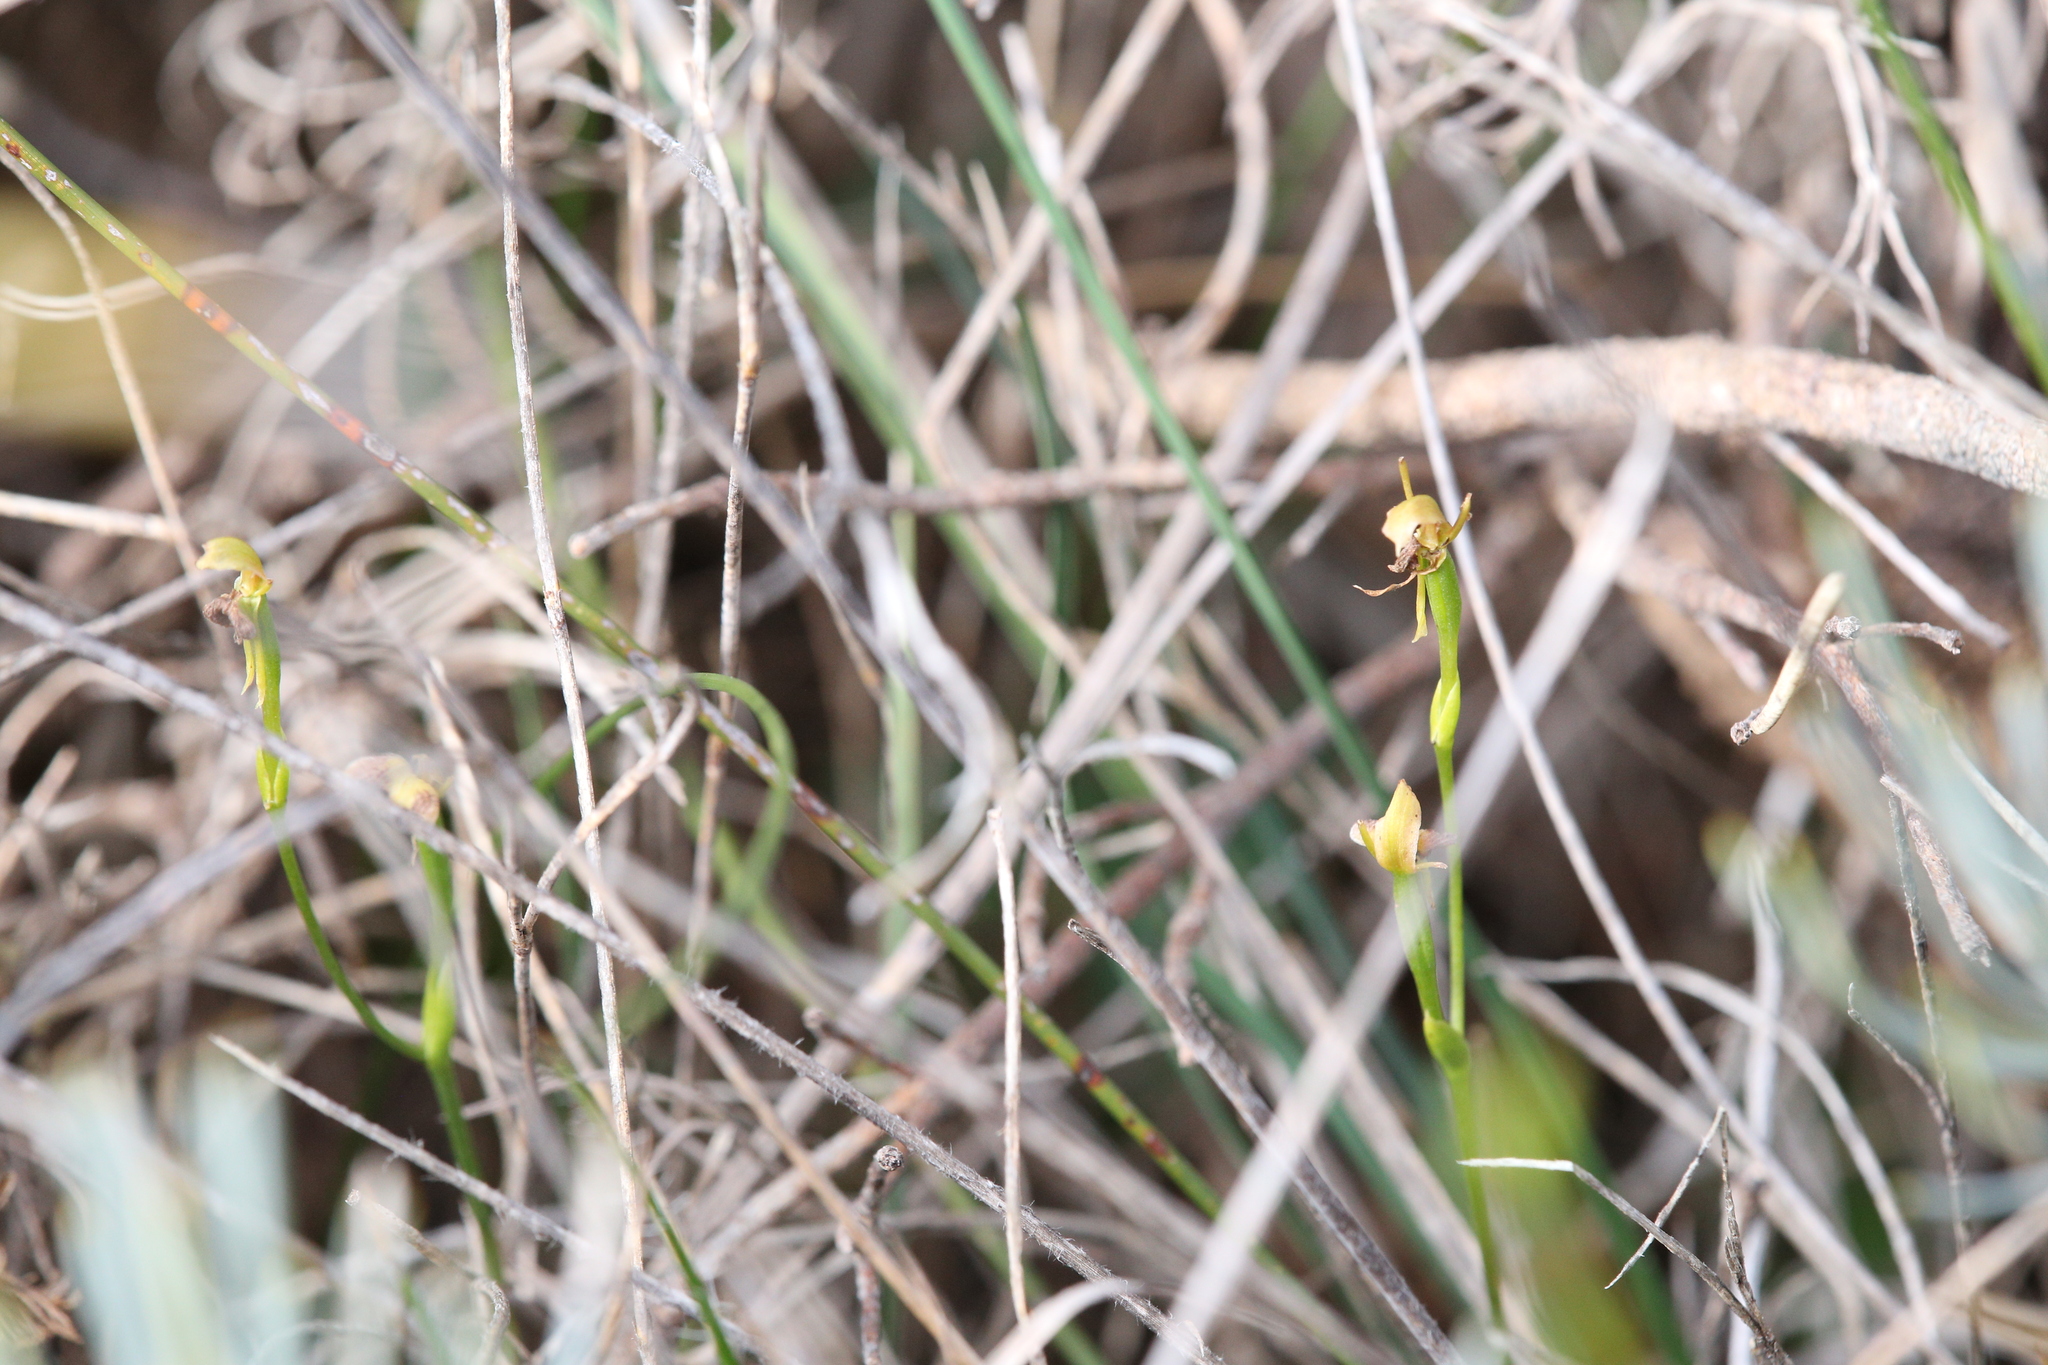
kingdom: Plantae
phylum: Tracheophyta
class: Liliopsida
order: Asparagales
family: Orchidaceae
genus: Leporella
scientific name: Leporella fimbriata
